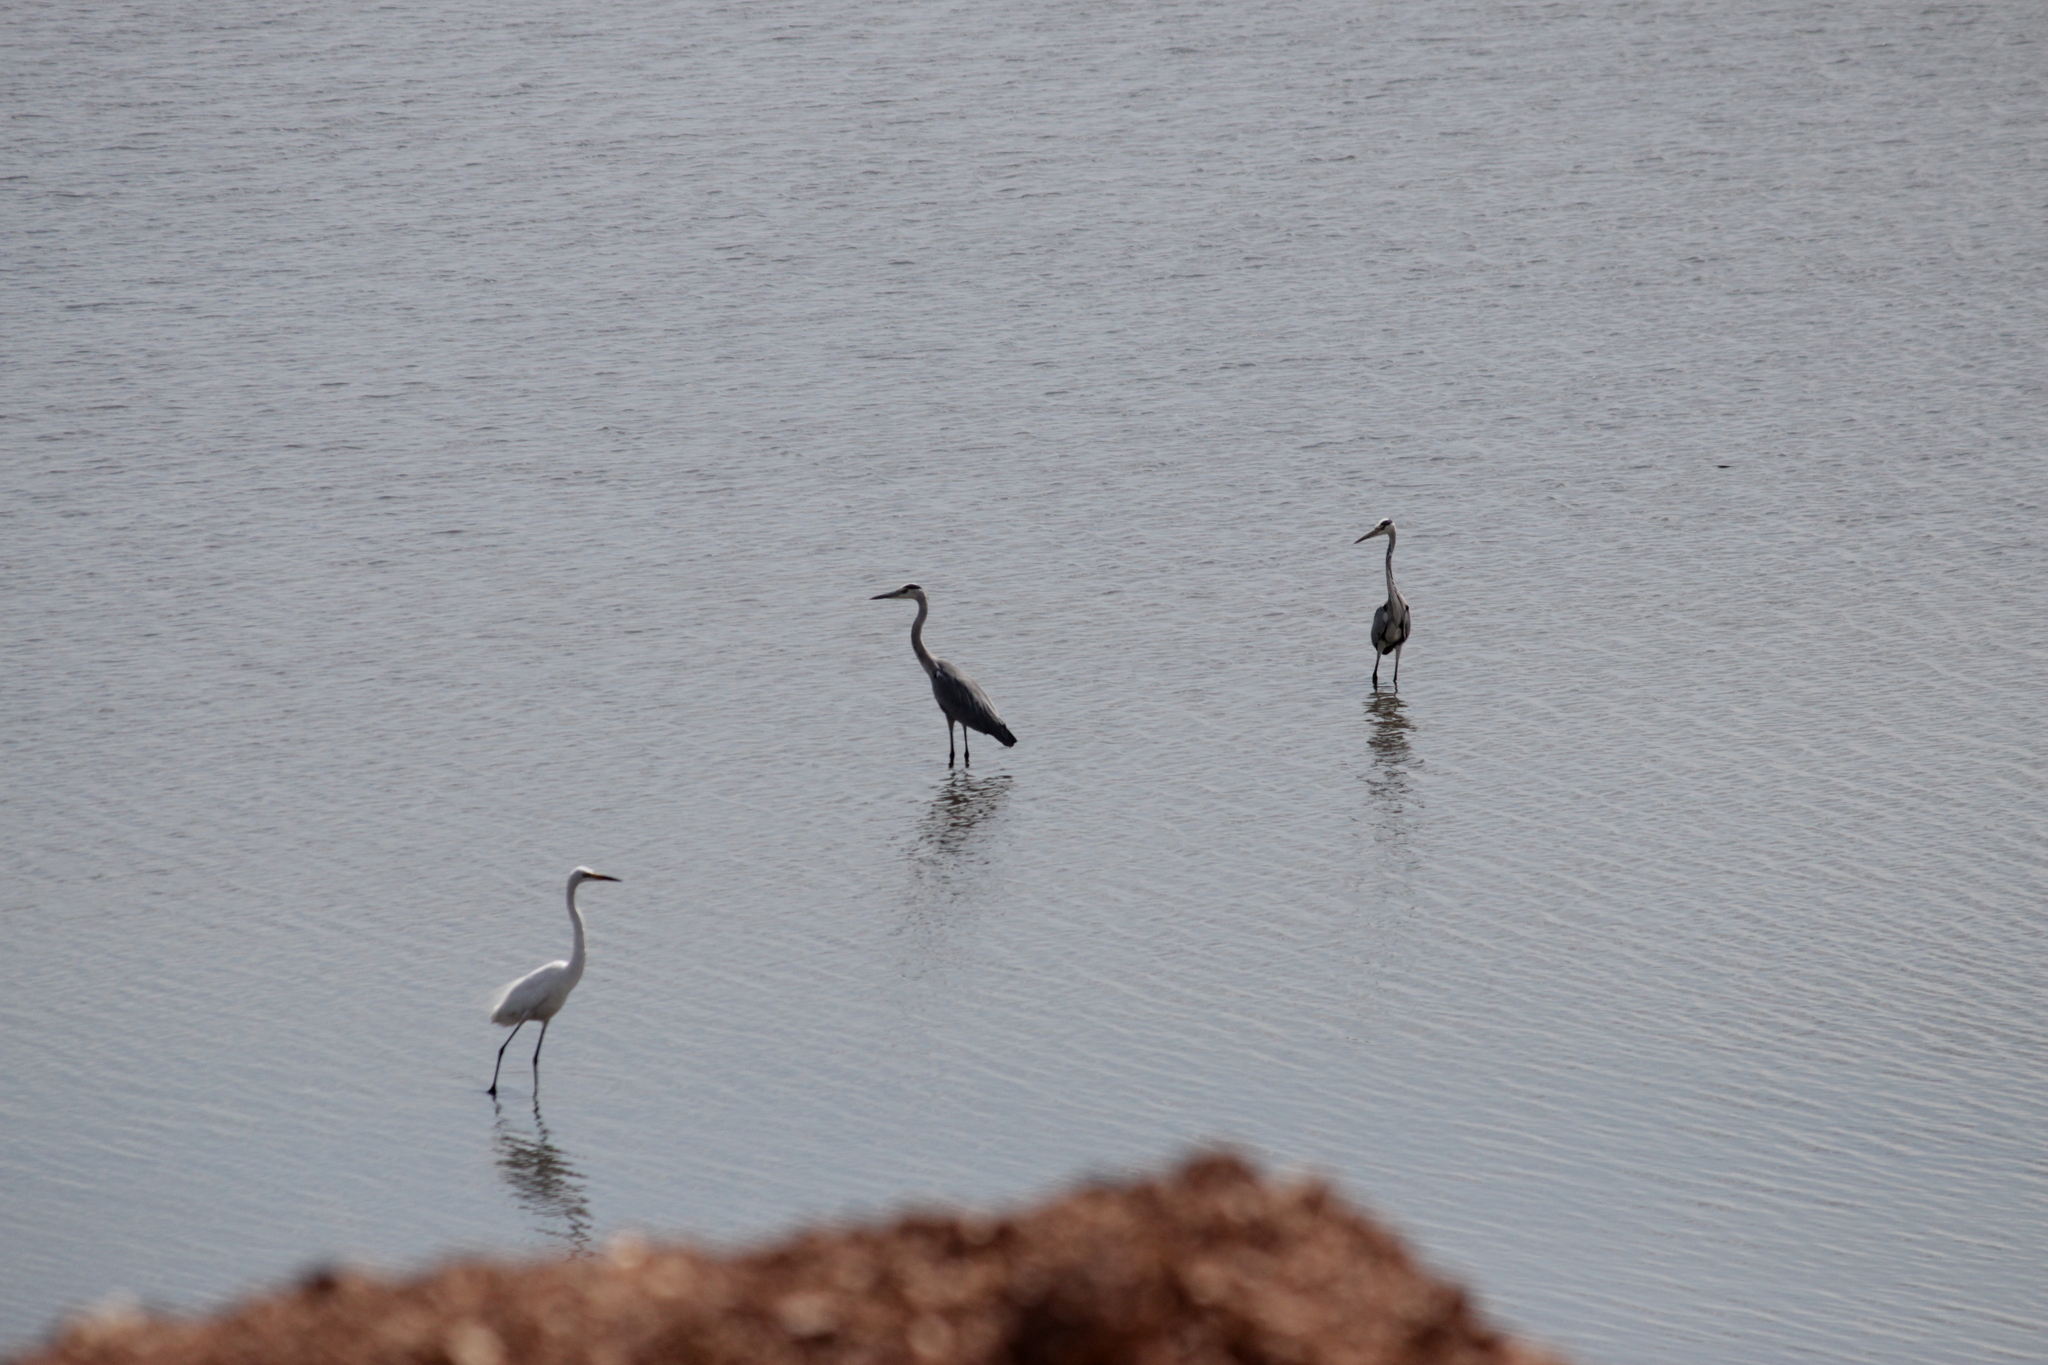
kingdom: Animalia
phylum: Chordata
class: Aves
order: Pelecaniformes
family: Ardeidae
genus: Ardea
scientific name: Ardea cinerea
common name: Grey heron
